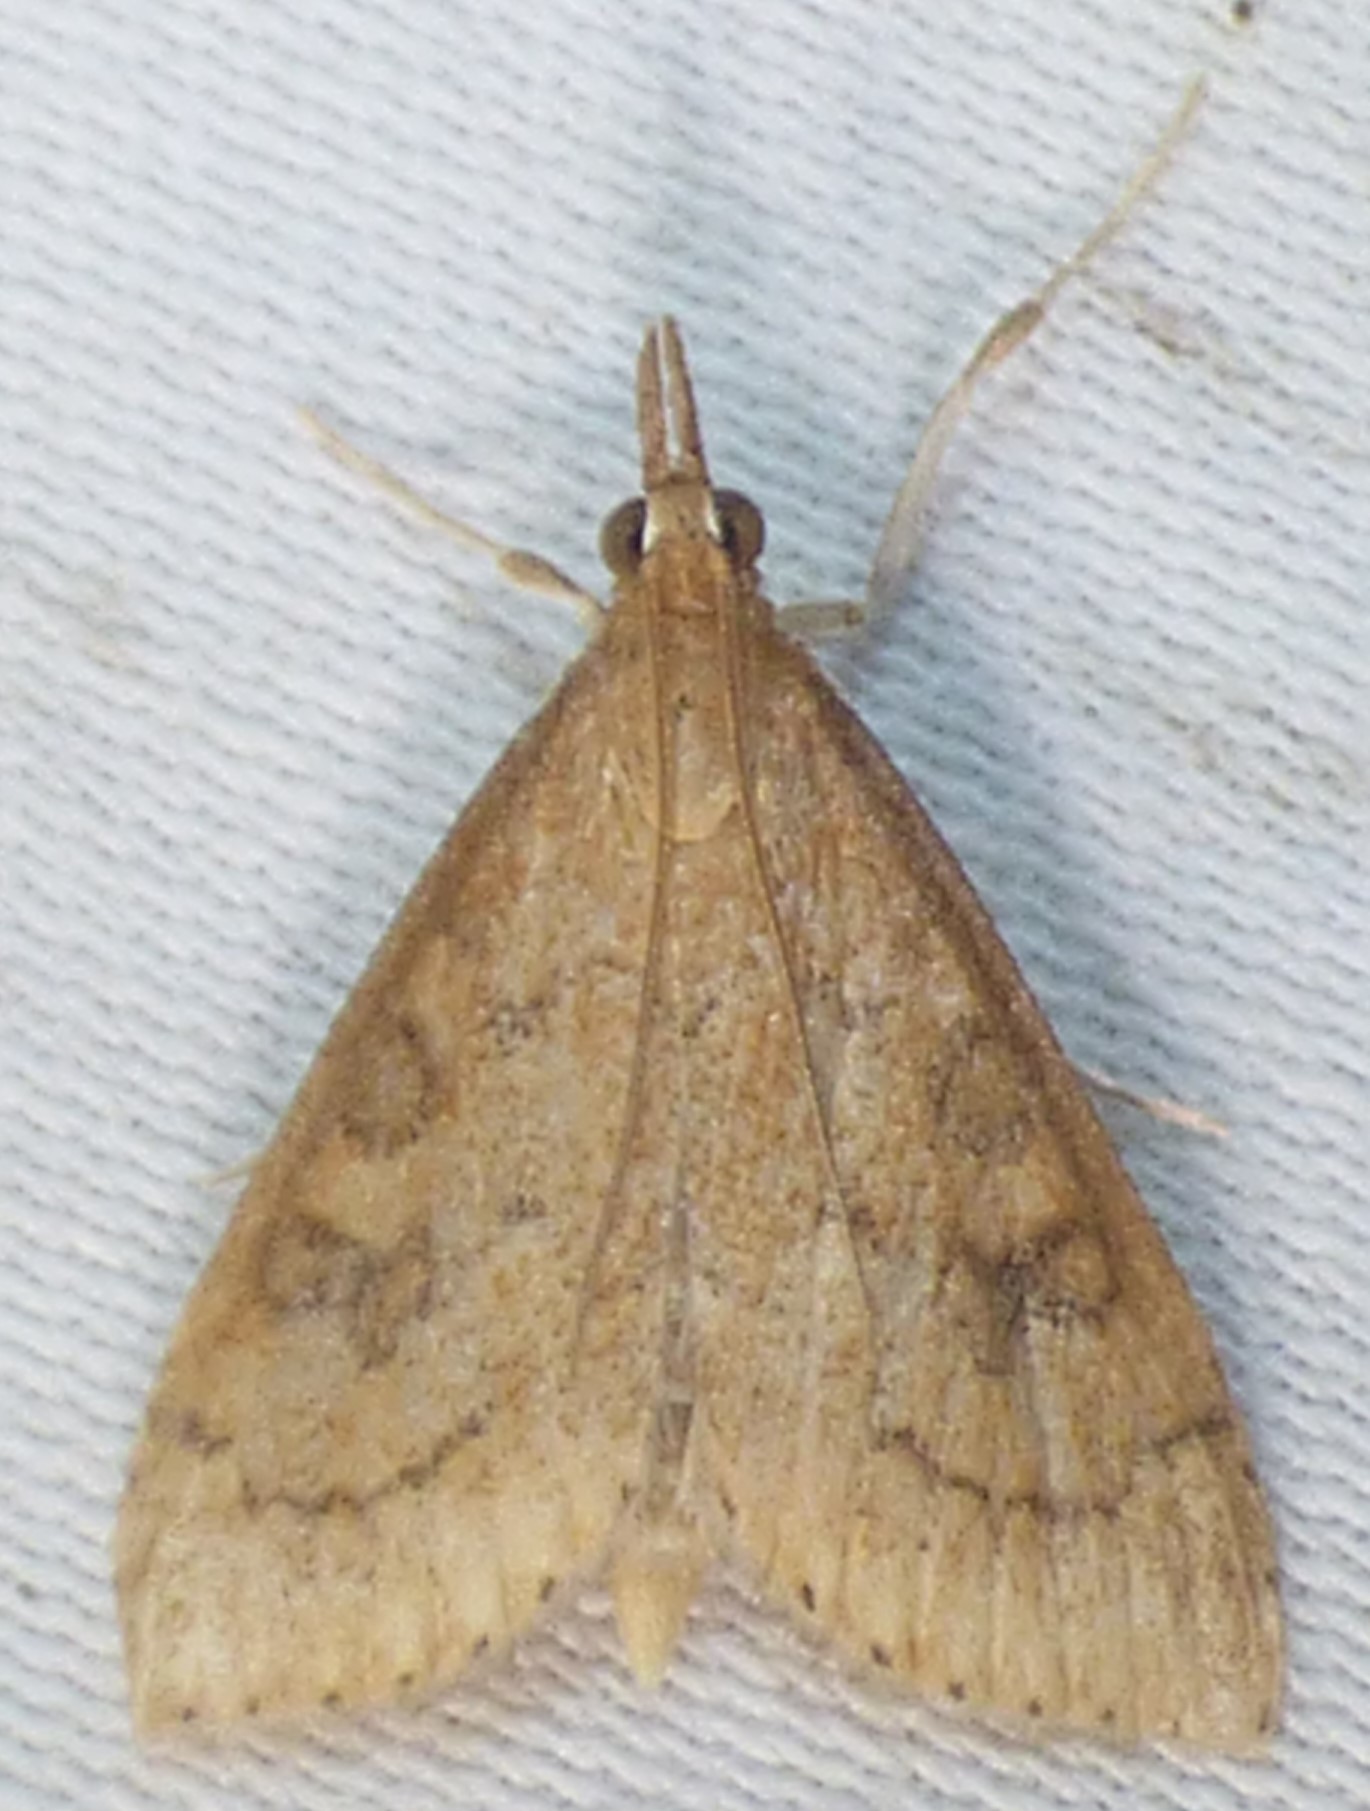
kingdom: Animalia
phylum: Arthropoda
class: Insecta
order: Lepidoptera
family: Crambidae
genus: Udea
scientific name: Udea rubigalis
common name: Celery leaftier moth
